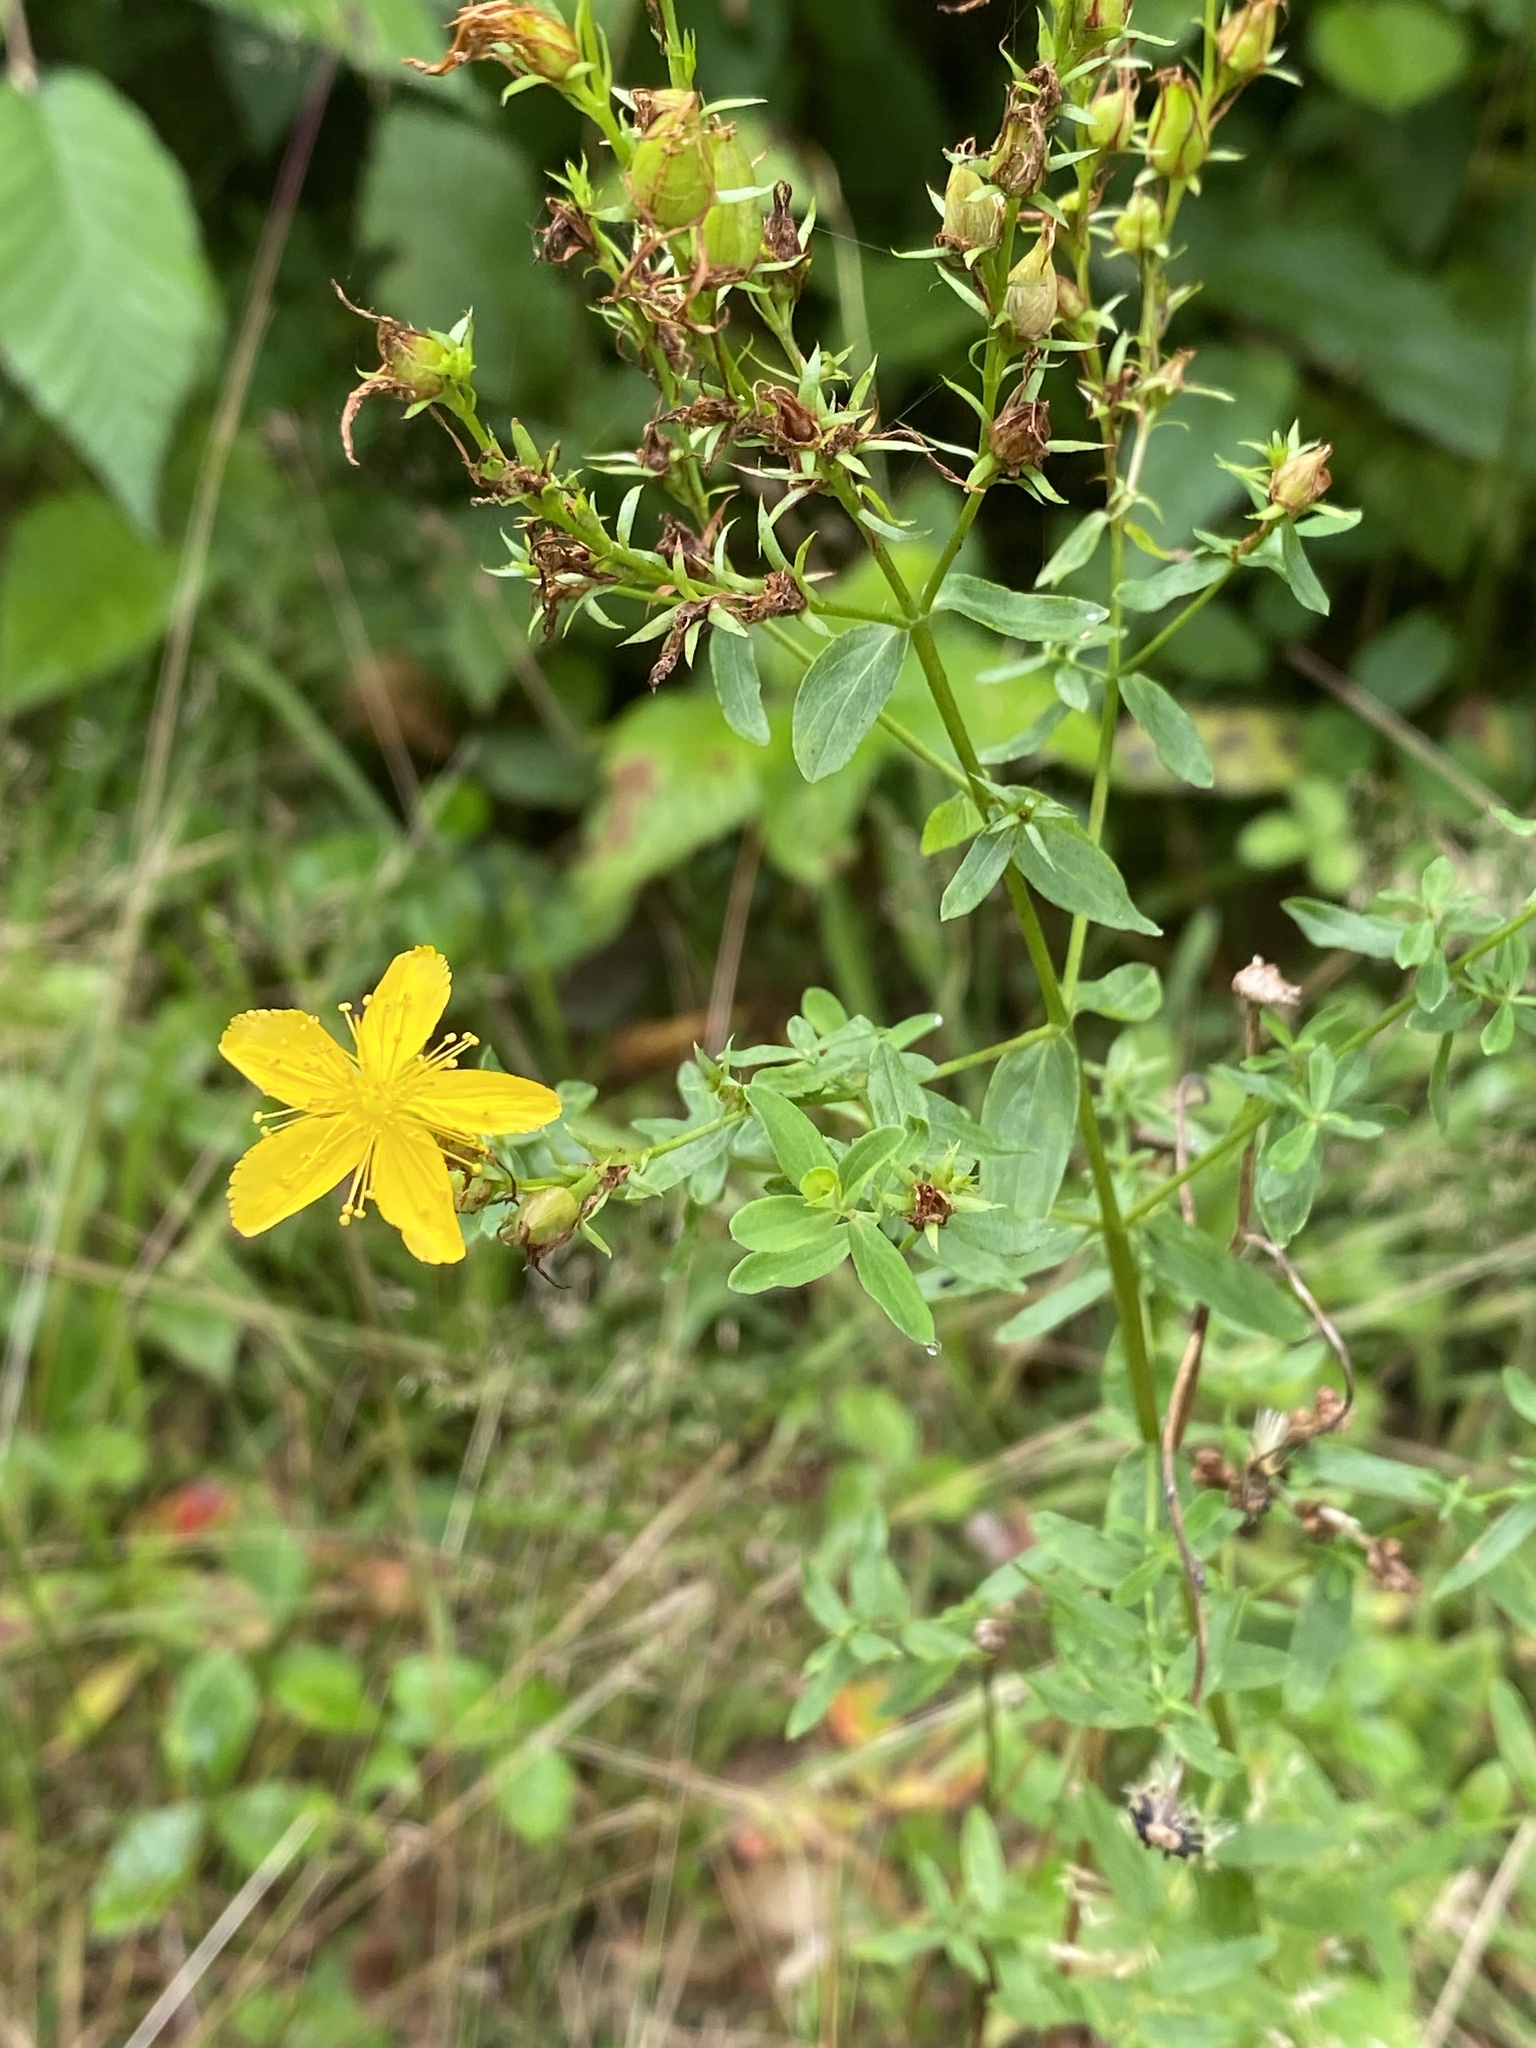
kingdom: Plantae
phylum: Tracheophyta
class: Magnoliopsida
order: Malpighiales
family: Hypericaceae
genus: Hypericum
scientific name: Hypericum perforatum
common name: Common st. johnswort
